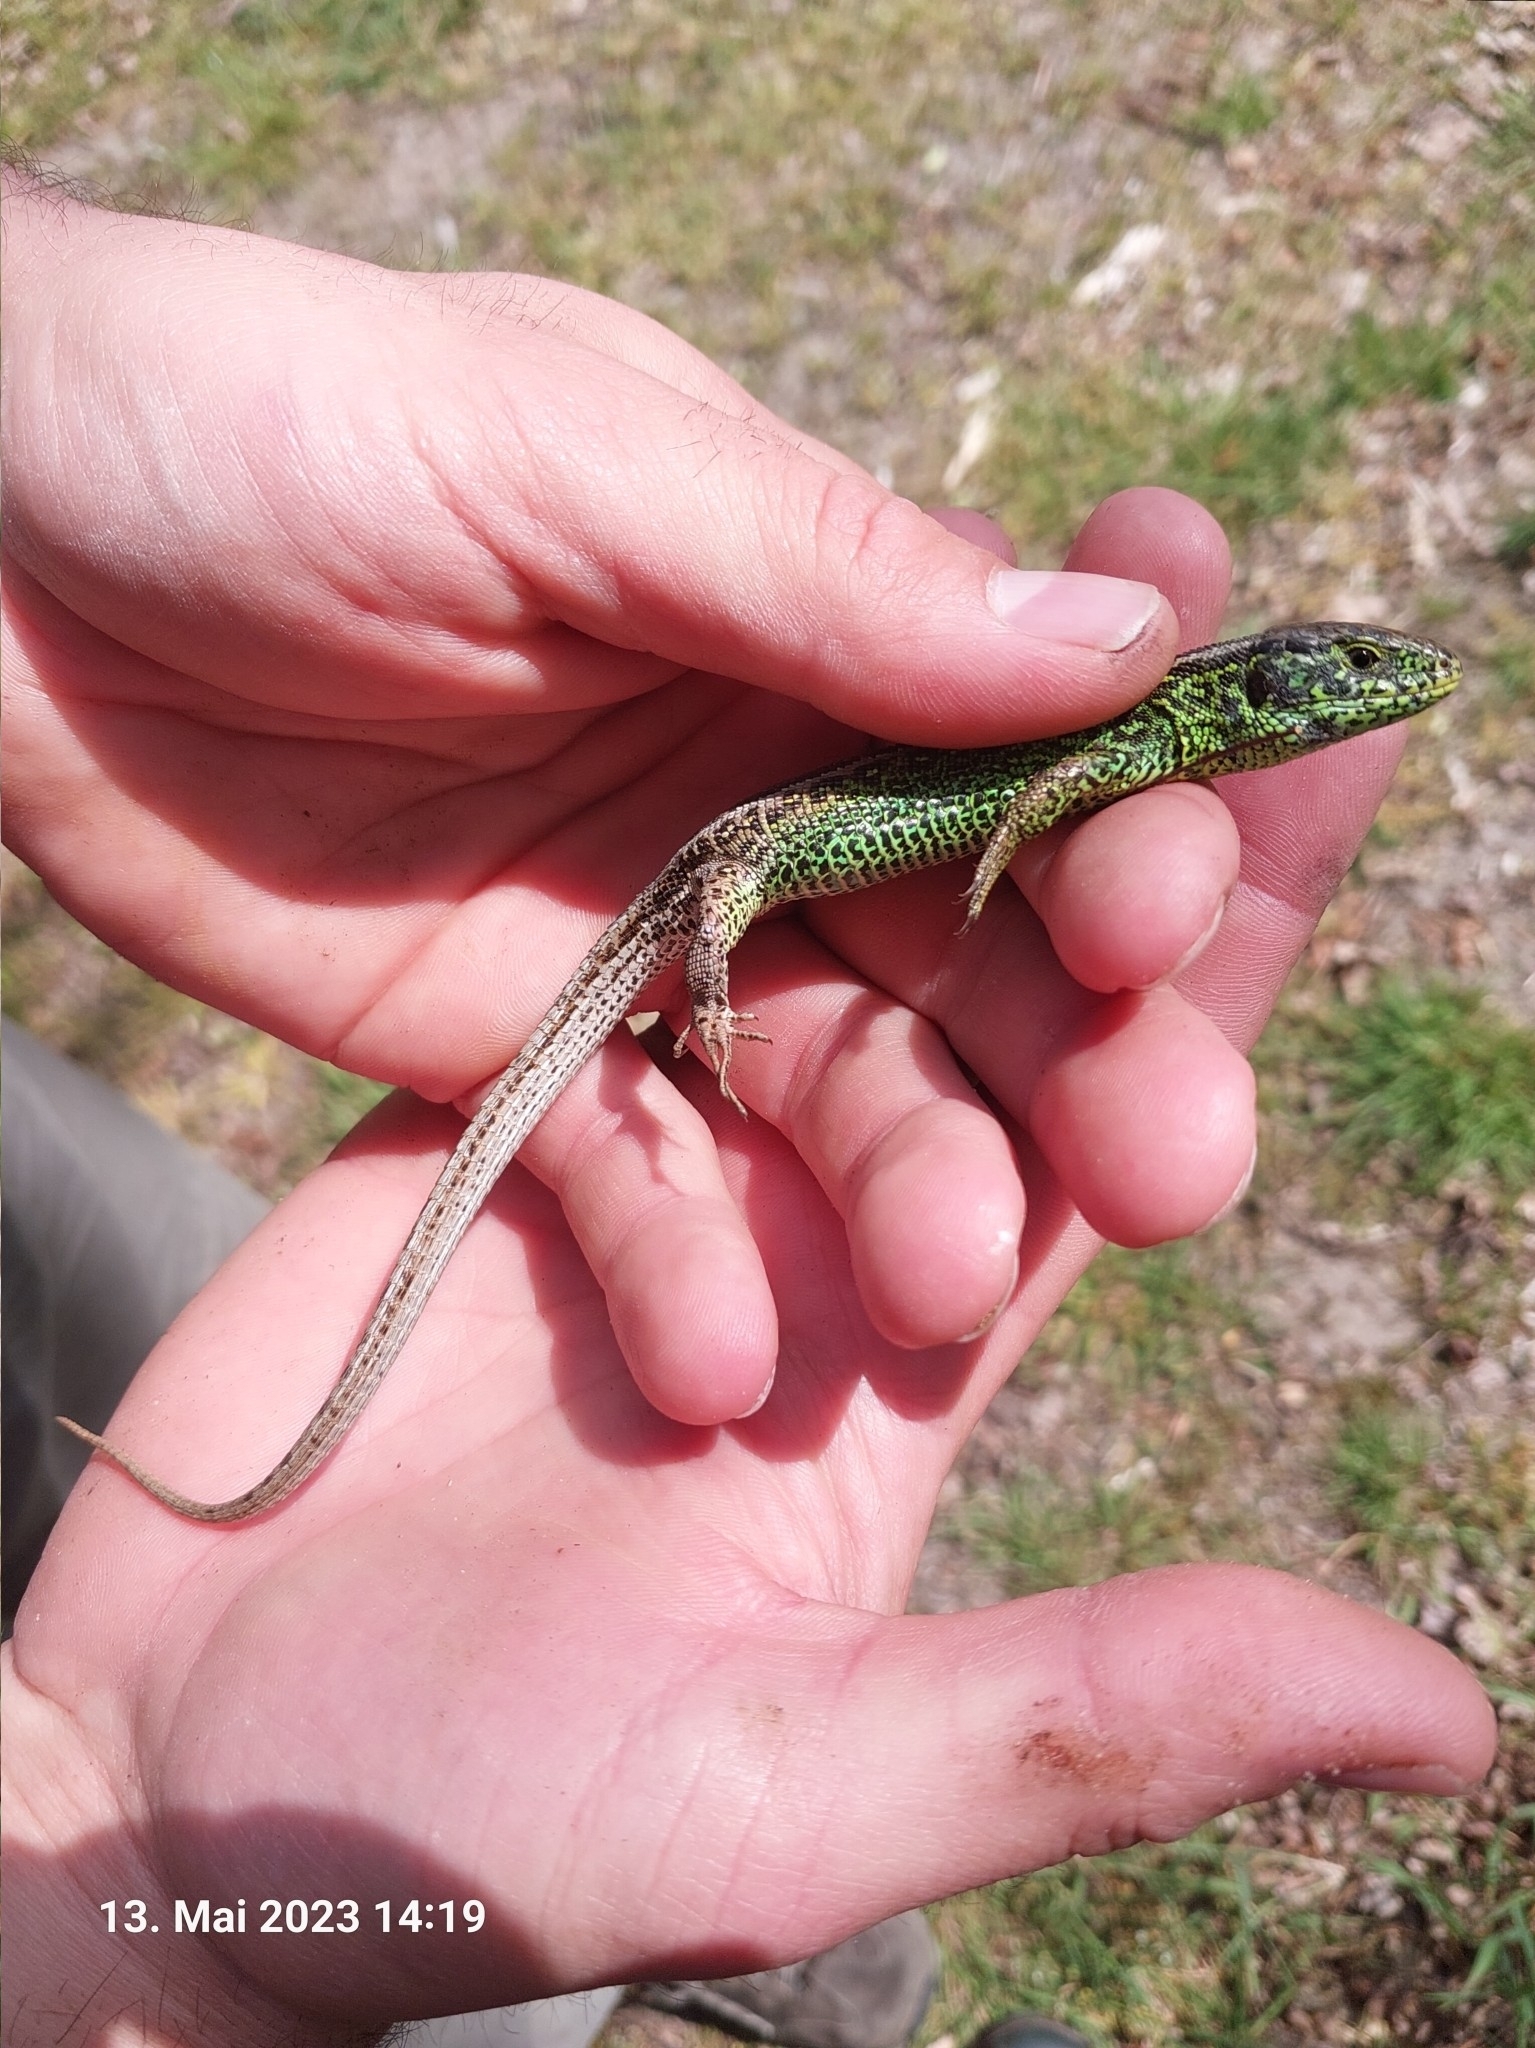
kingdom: Animalia
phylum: Chordata
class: Squamata
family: Lacertidae
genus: Lacerta
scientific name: Lacerta agilis
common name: Sand lizard
